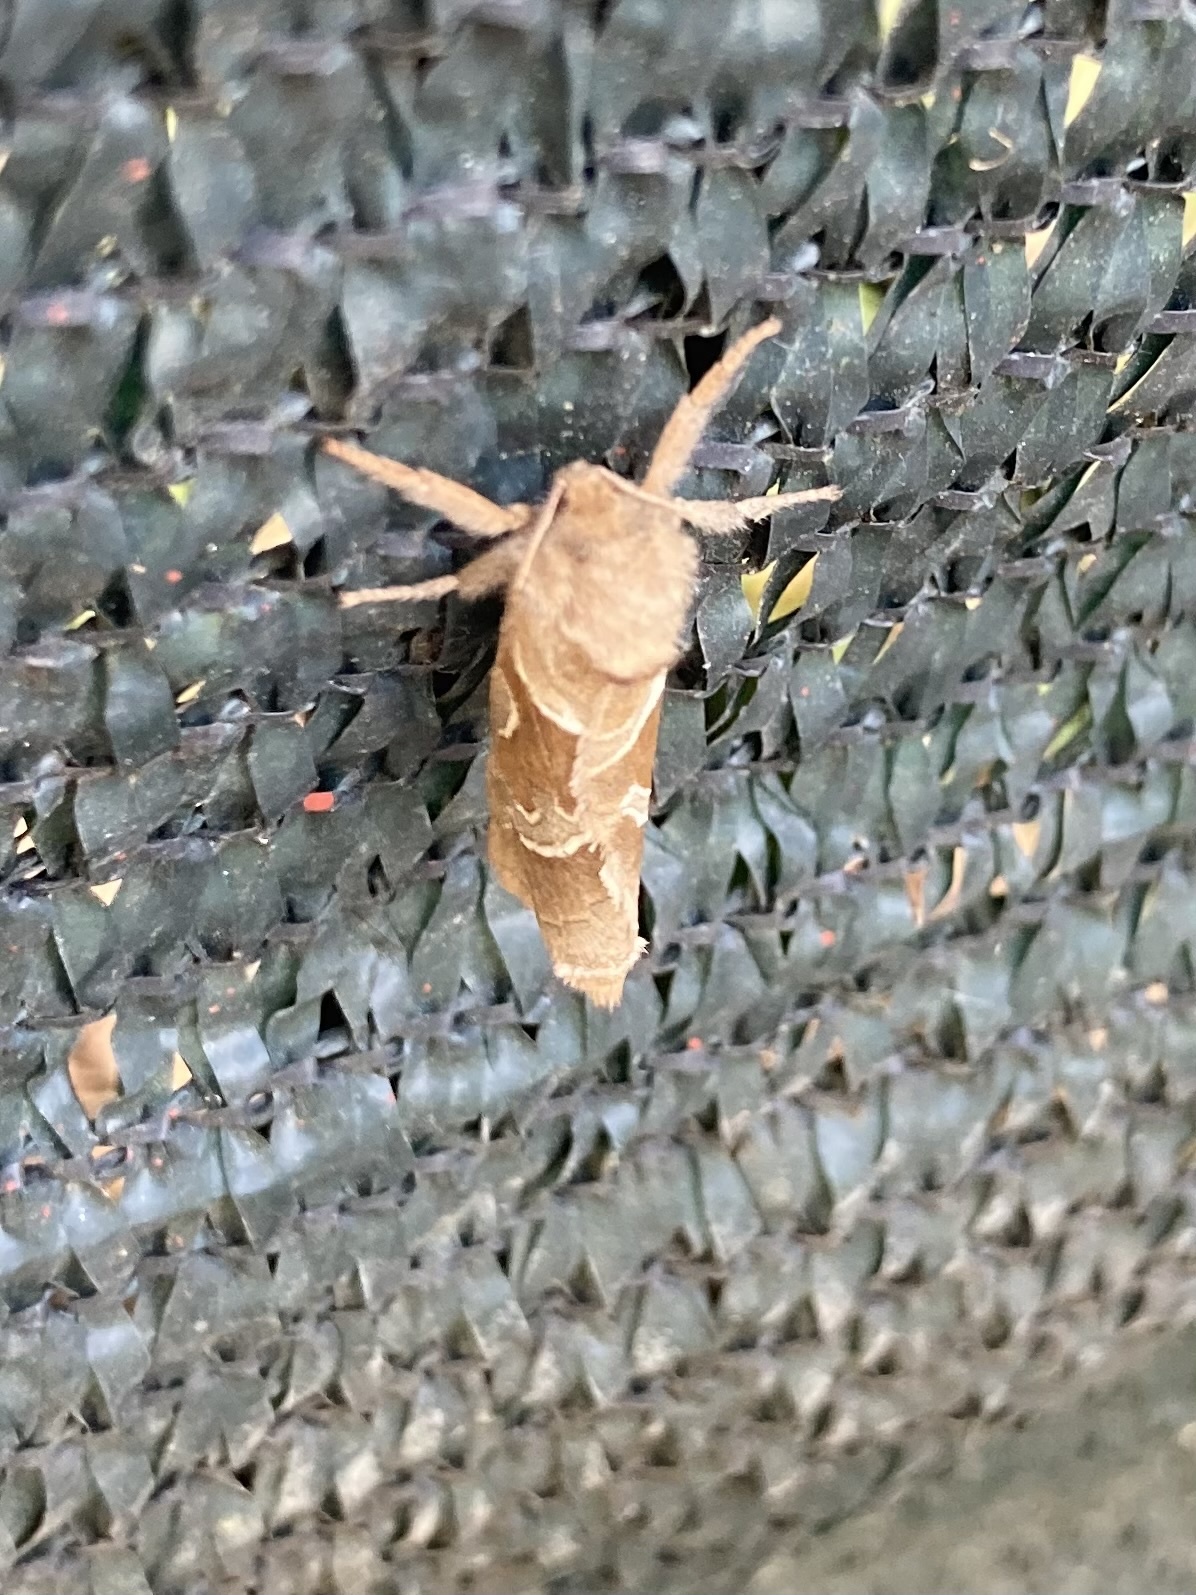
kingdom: Animalia
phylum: Arthropoda
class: Insecta
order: Lepidoptera
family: Hepialidae
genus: Triodia
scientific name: Triodia sylvina
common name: Orange swift
